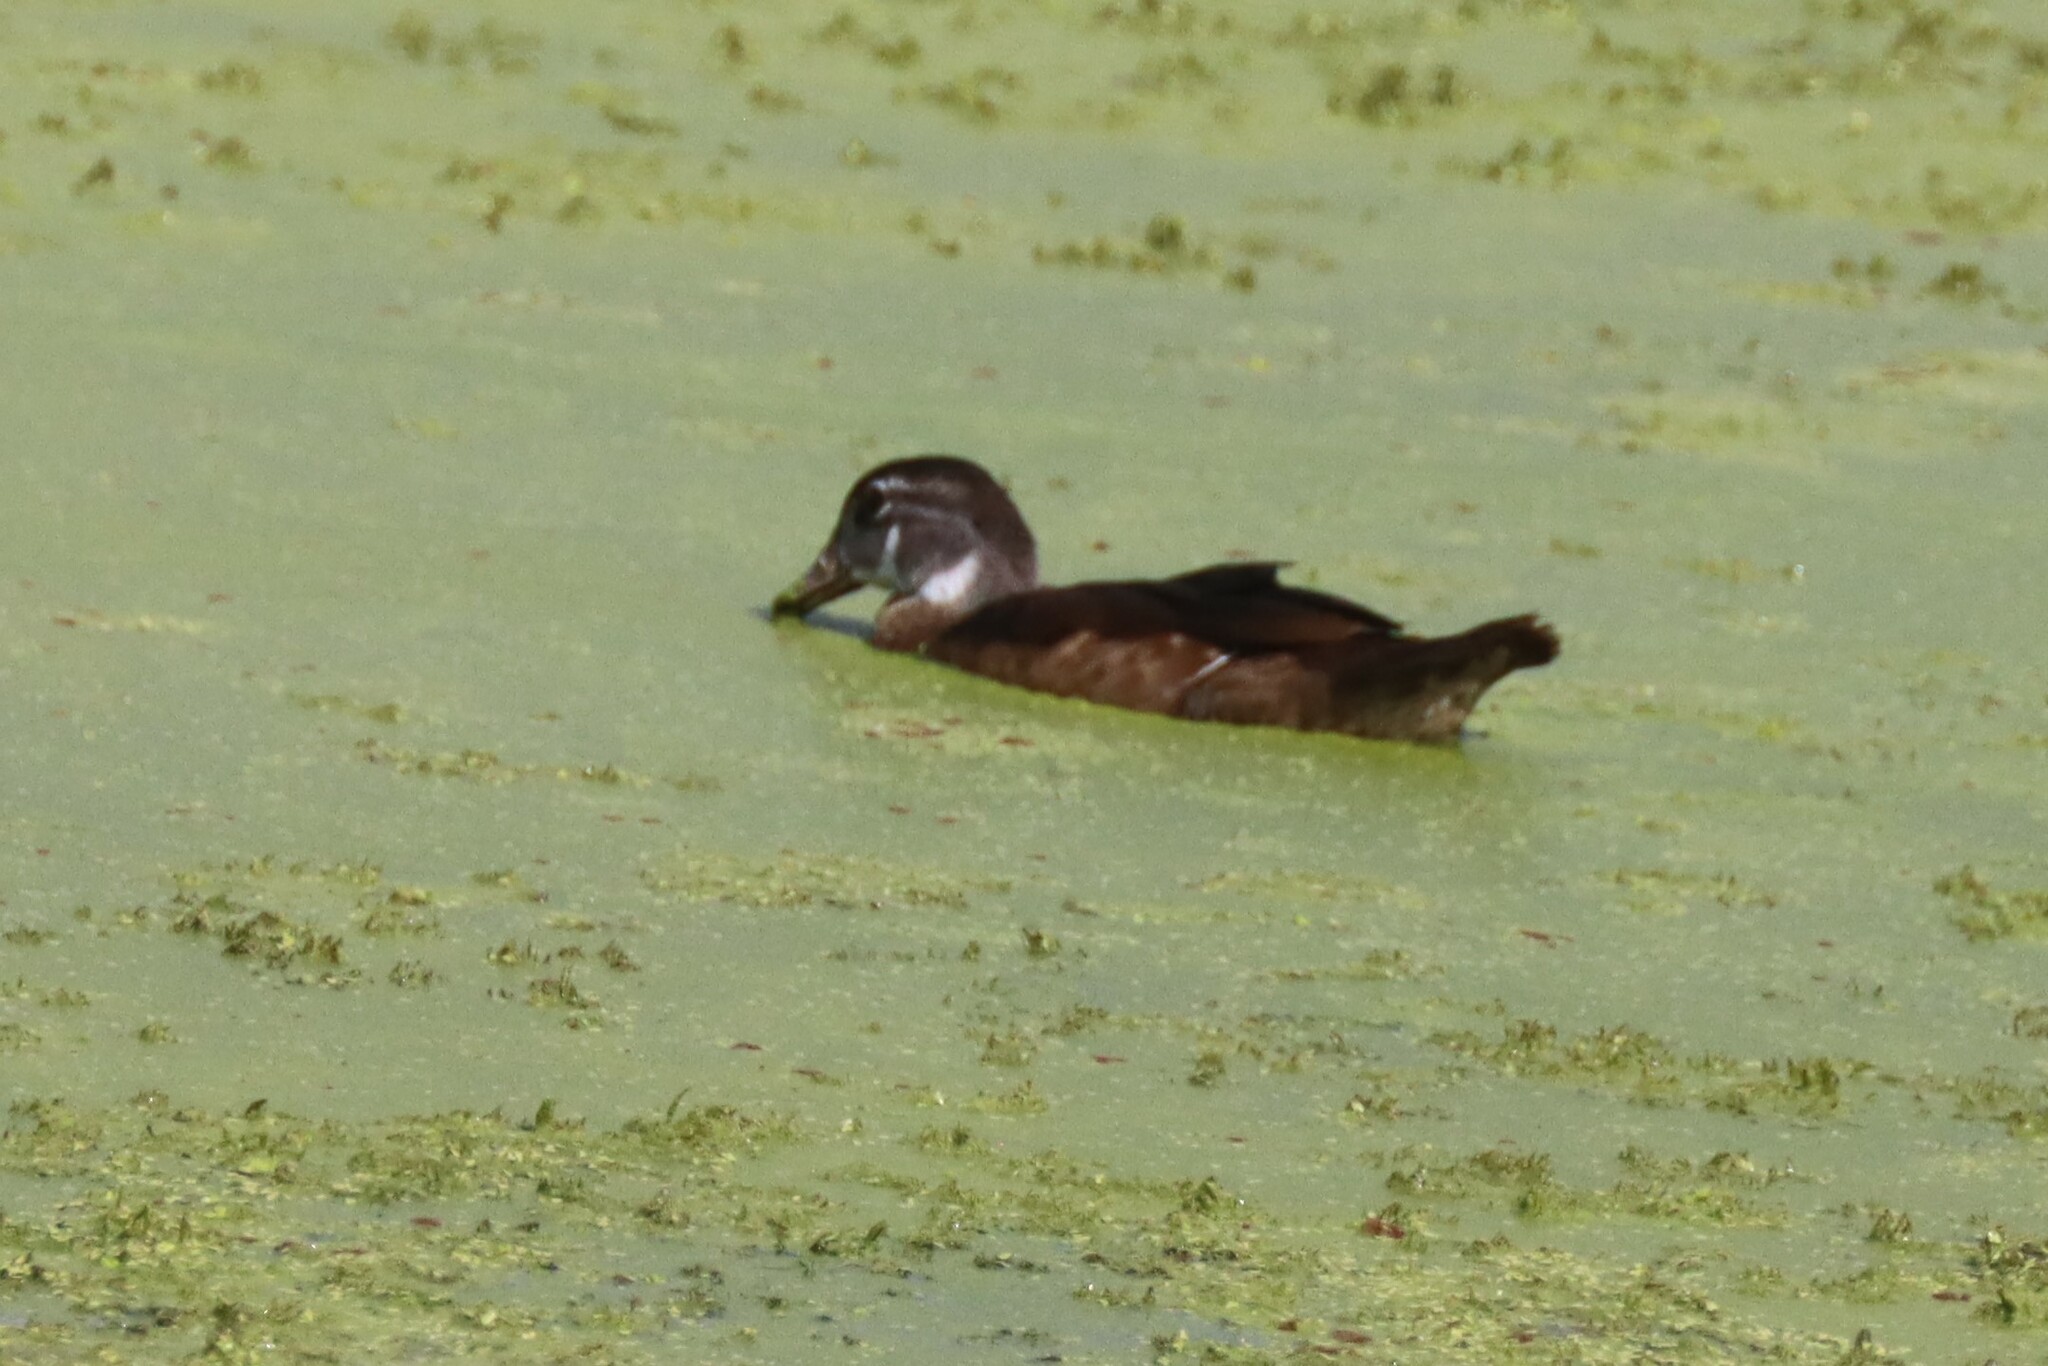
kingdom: Animalia
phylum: Chordata
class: Aves
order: Anseriformes
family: Anatidae
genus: Aix
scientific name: Aix sponsa
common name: Wood duck
